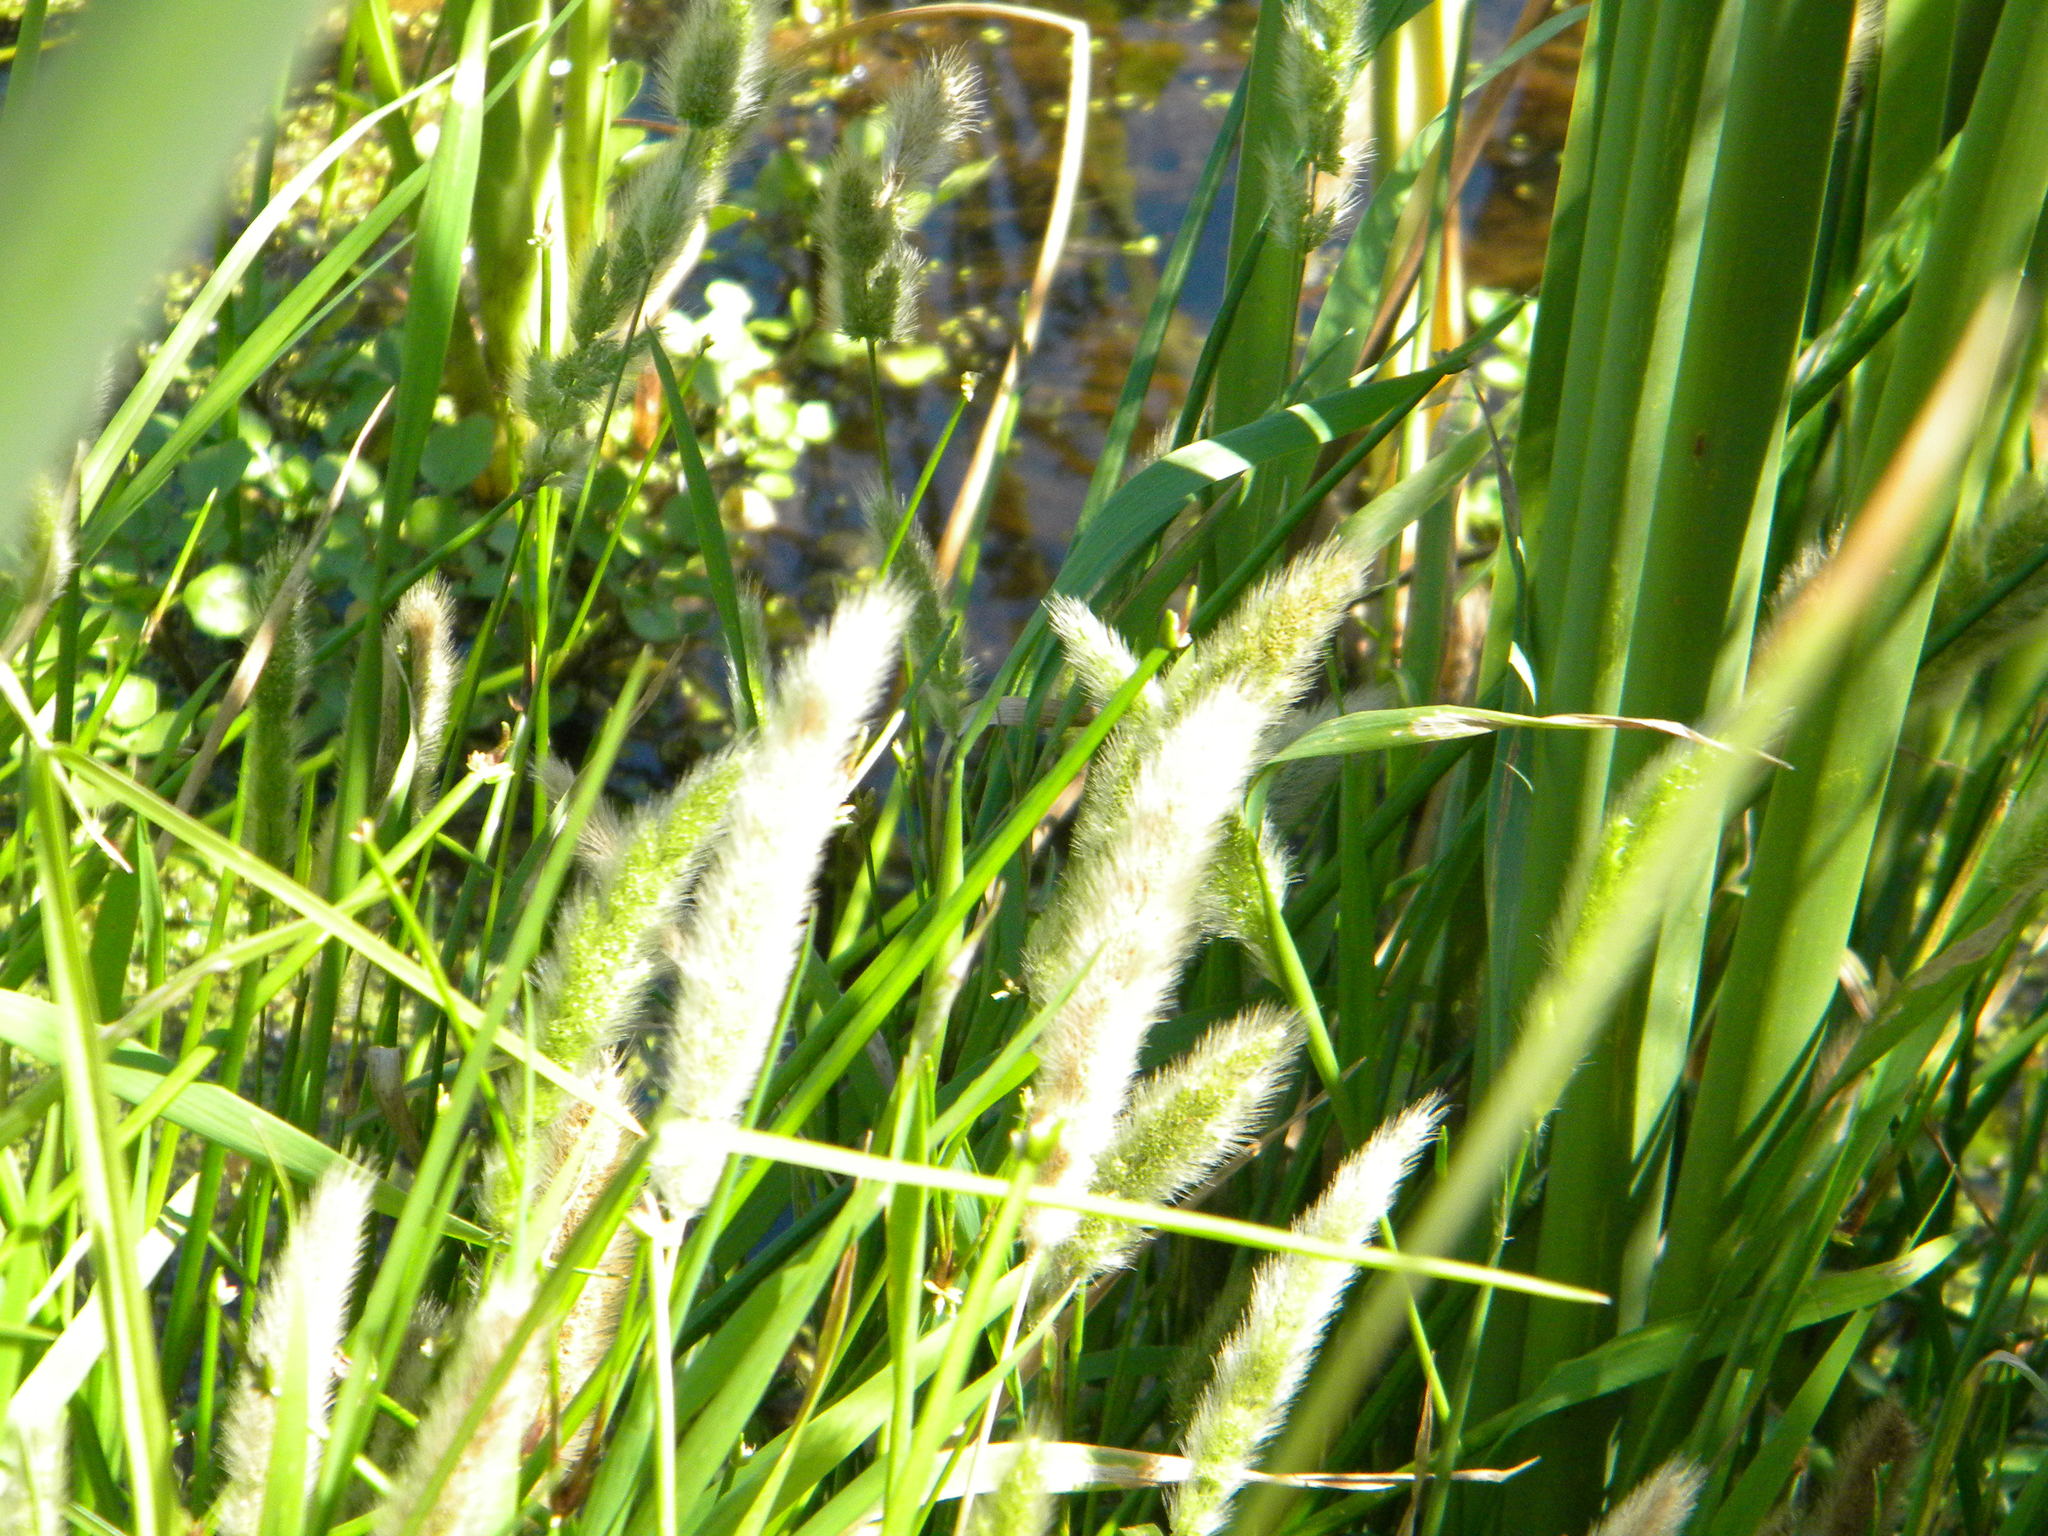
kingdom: Plantae
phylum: Tracheophyta
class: Liliopsida
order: Poales
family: Poaceae
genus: Polypogon
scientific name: Polypogon monspeliensis
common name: Annual rabbitsfoot grass
